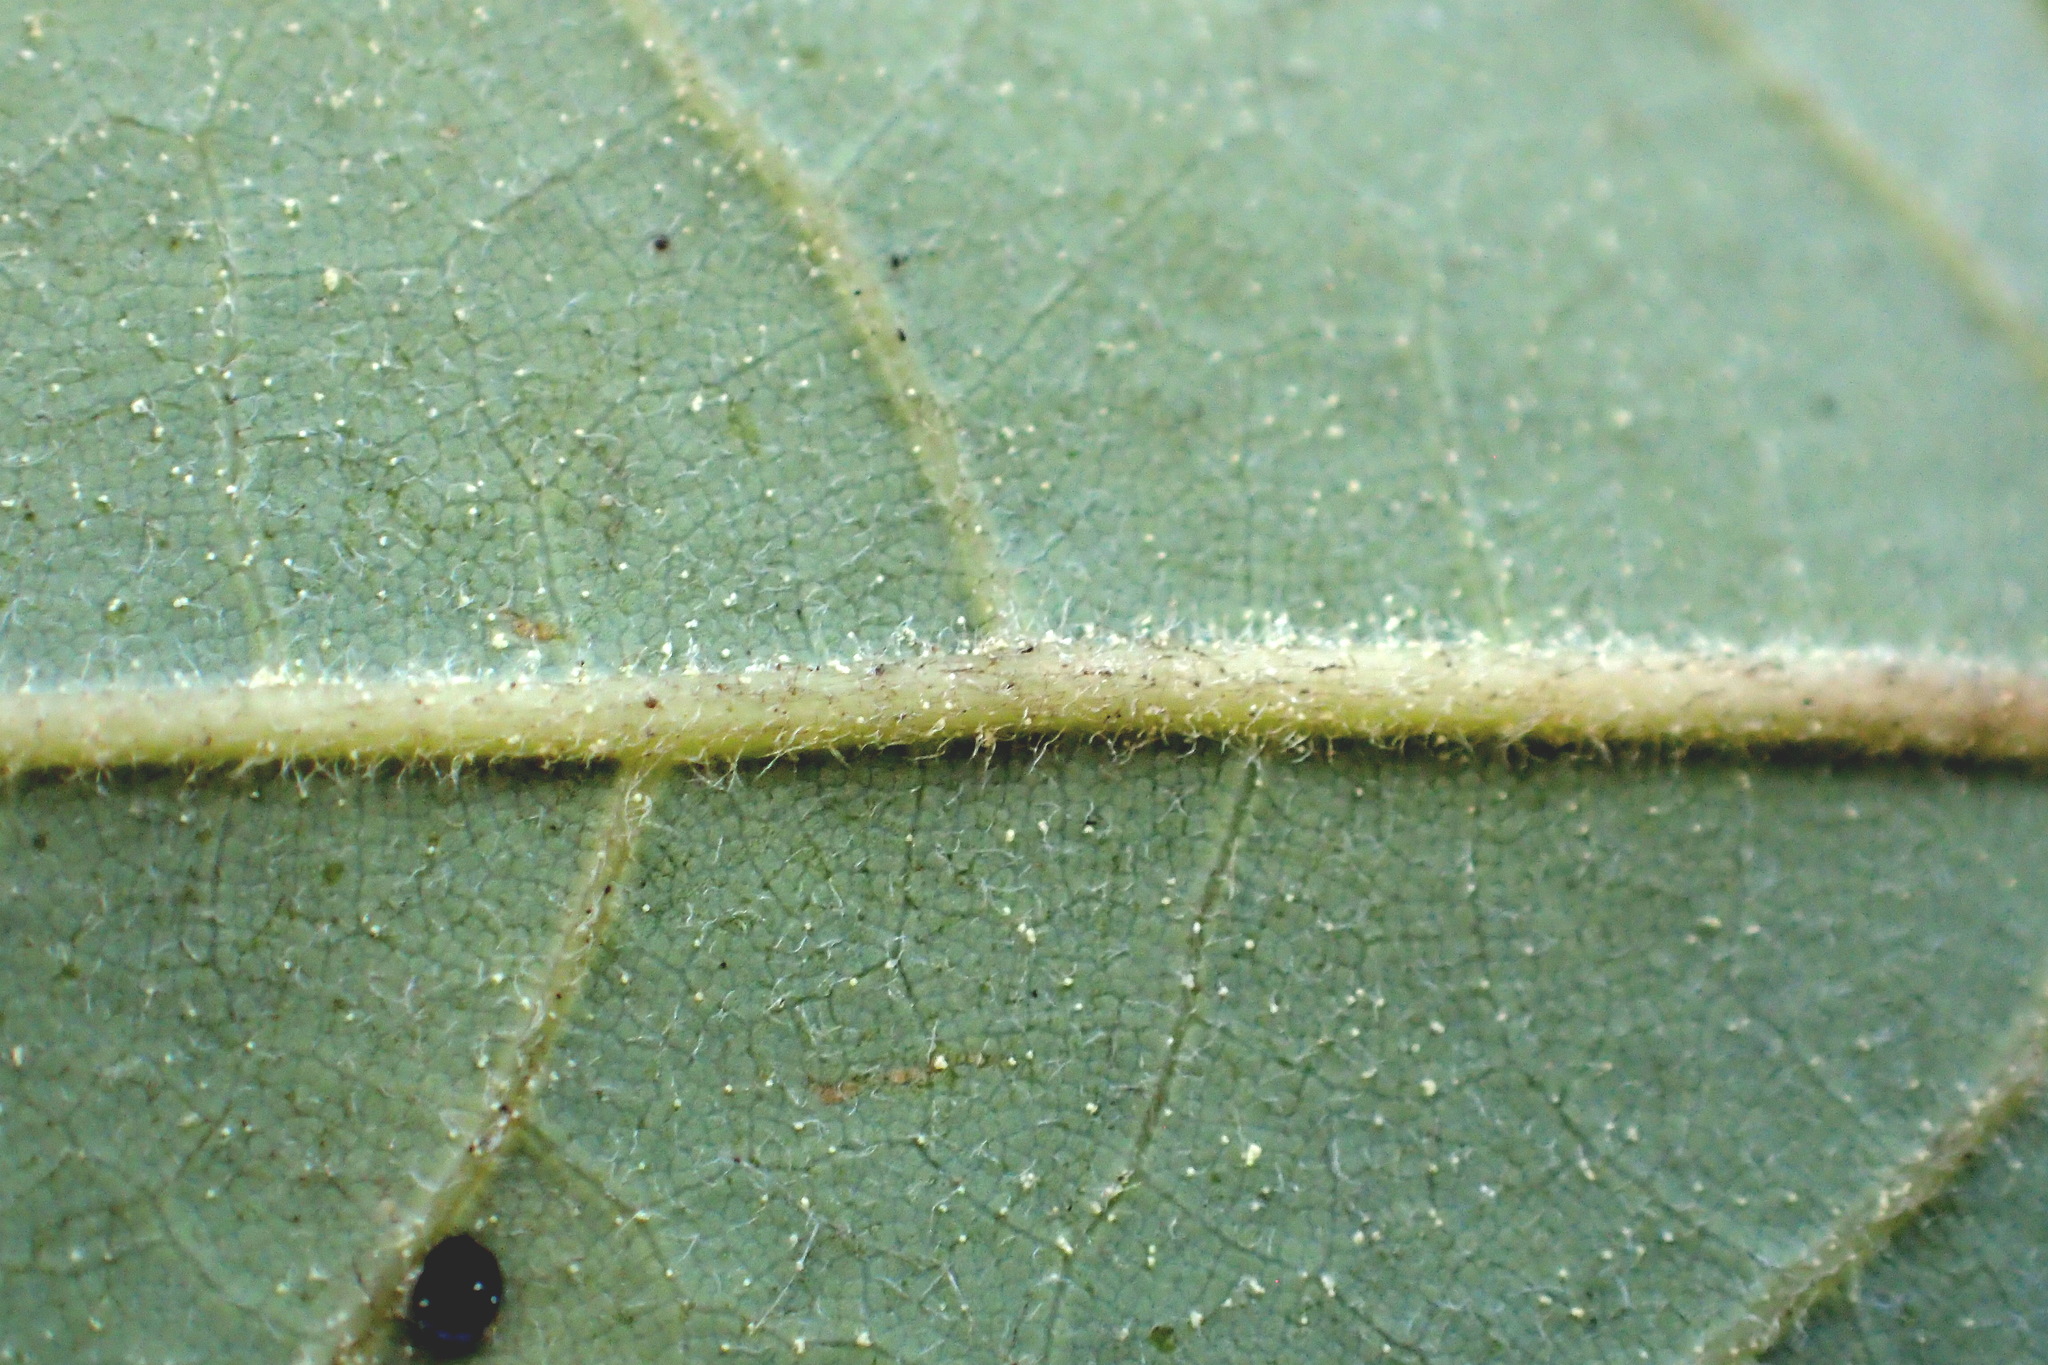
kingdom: Plantae
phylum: Tracheophyta
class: Magnoliopsida
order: Laurales
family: Lauraceae
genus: Persea
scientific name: Persea palustris
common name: Swampbay
